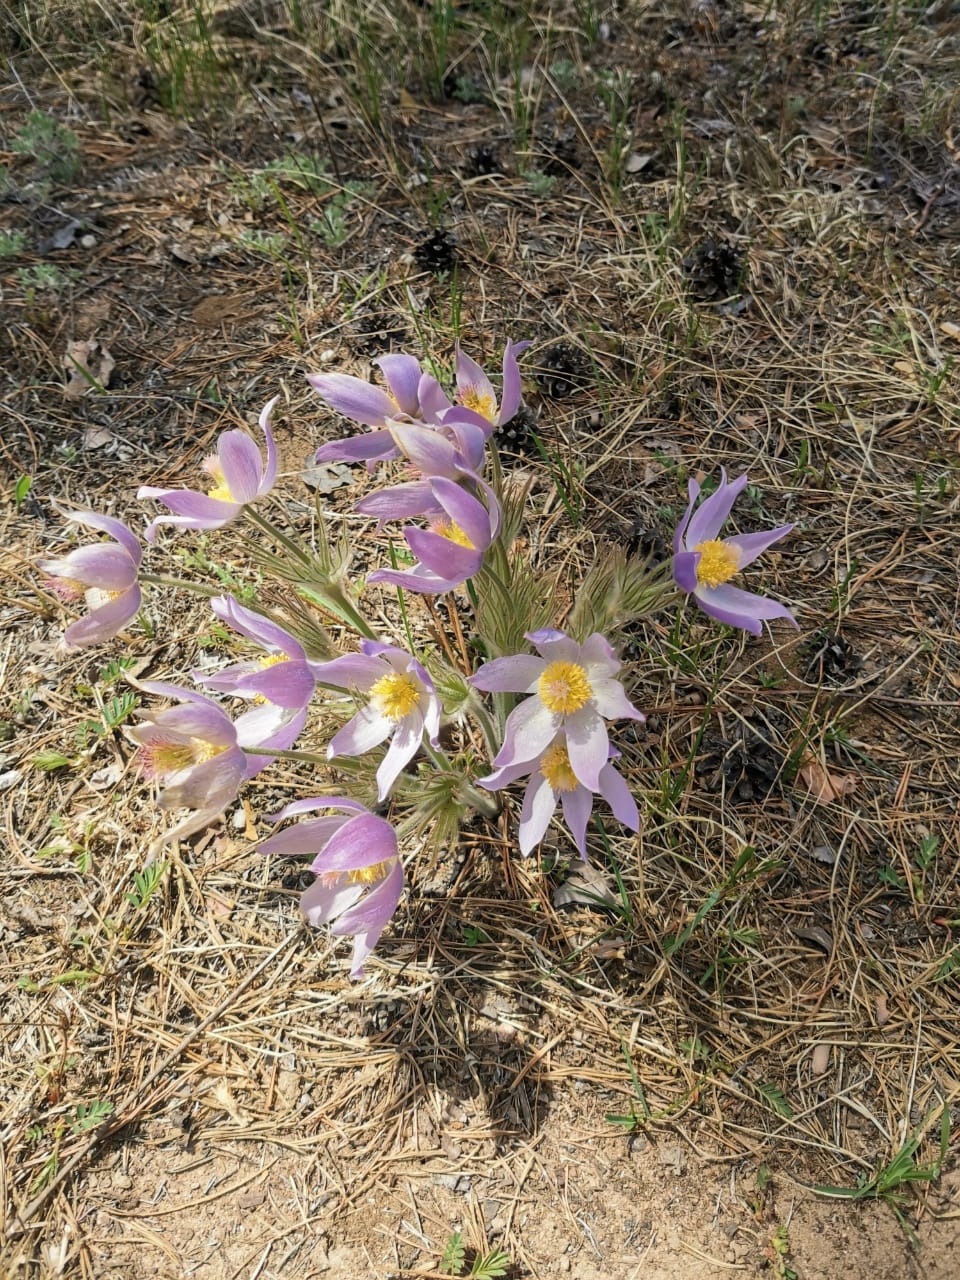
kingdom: Plantae
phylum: Tracheophyta
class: Magnoliopsida
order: Ranunculales
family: Ranunculaceae
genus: Pulsatilla
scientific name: Pulsatilla patens
